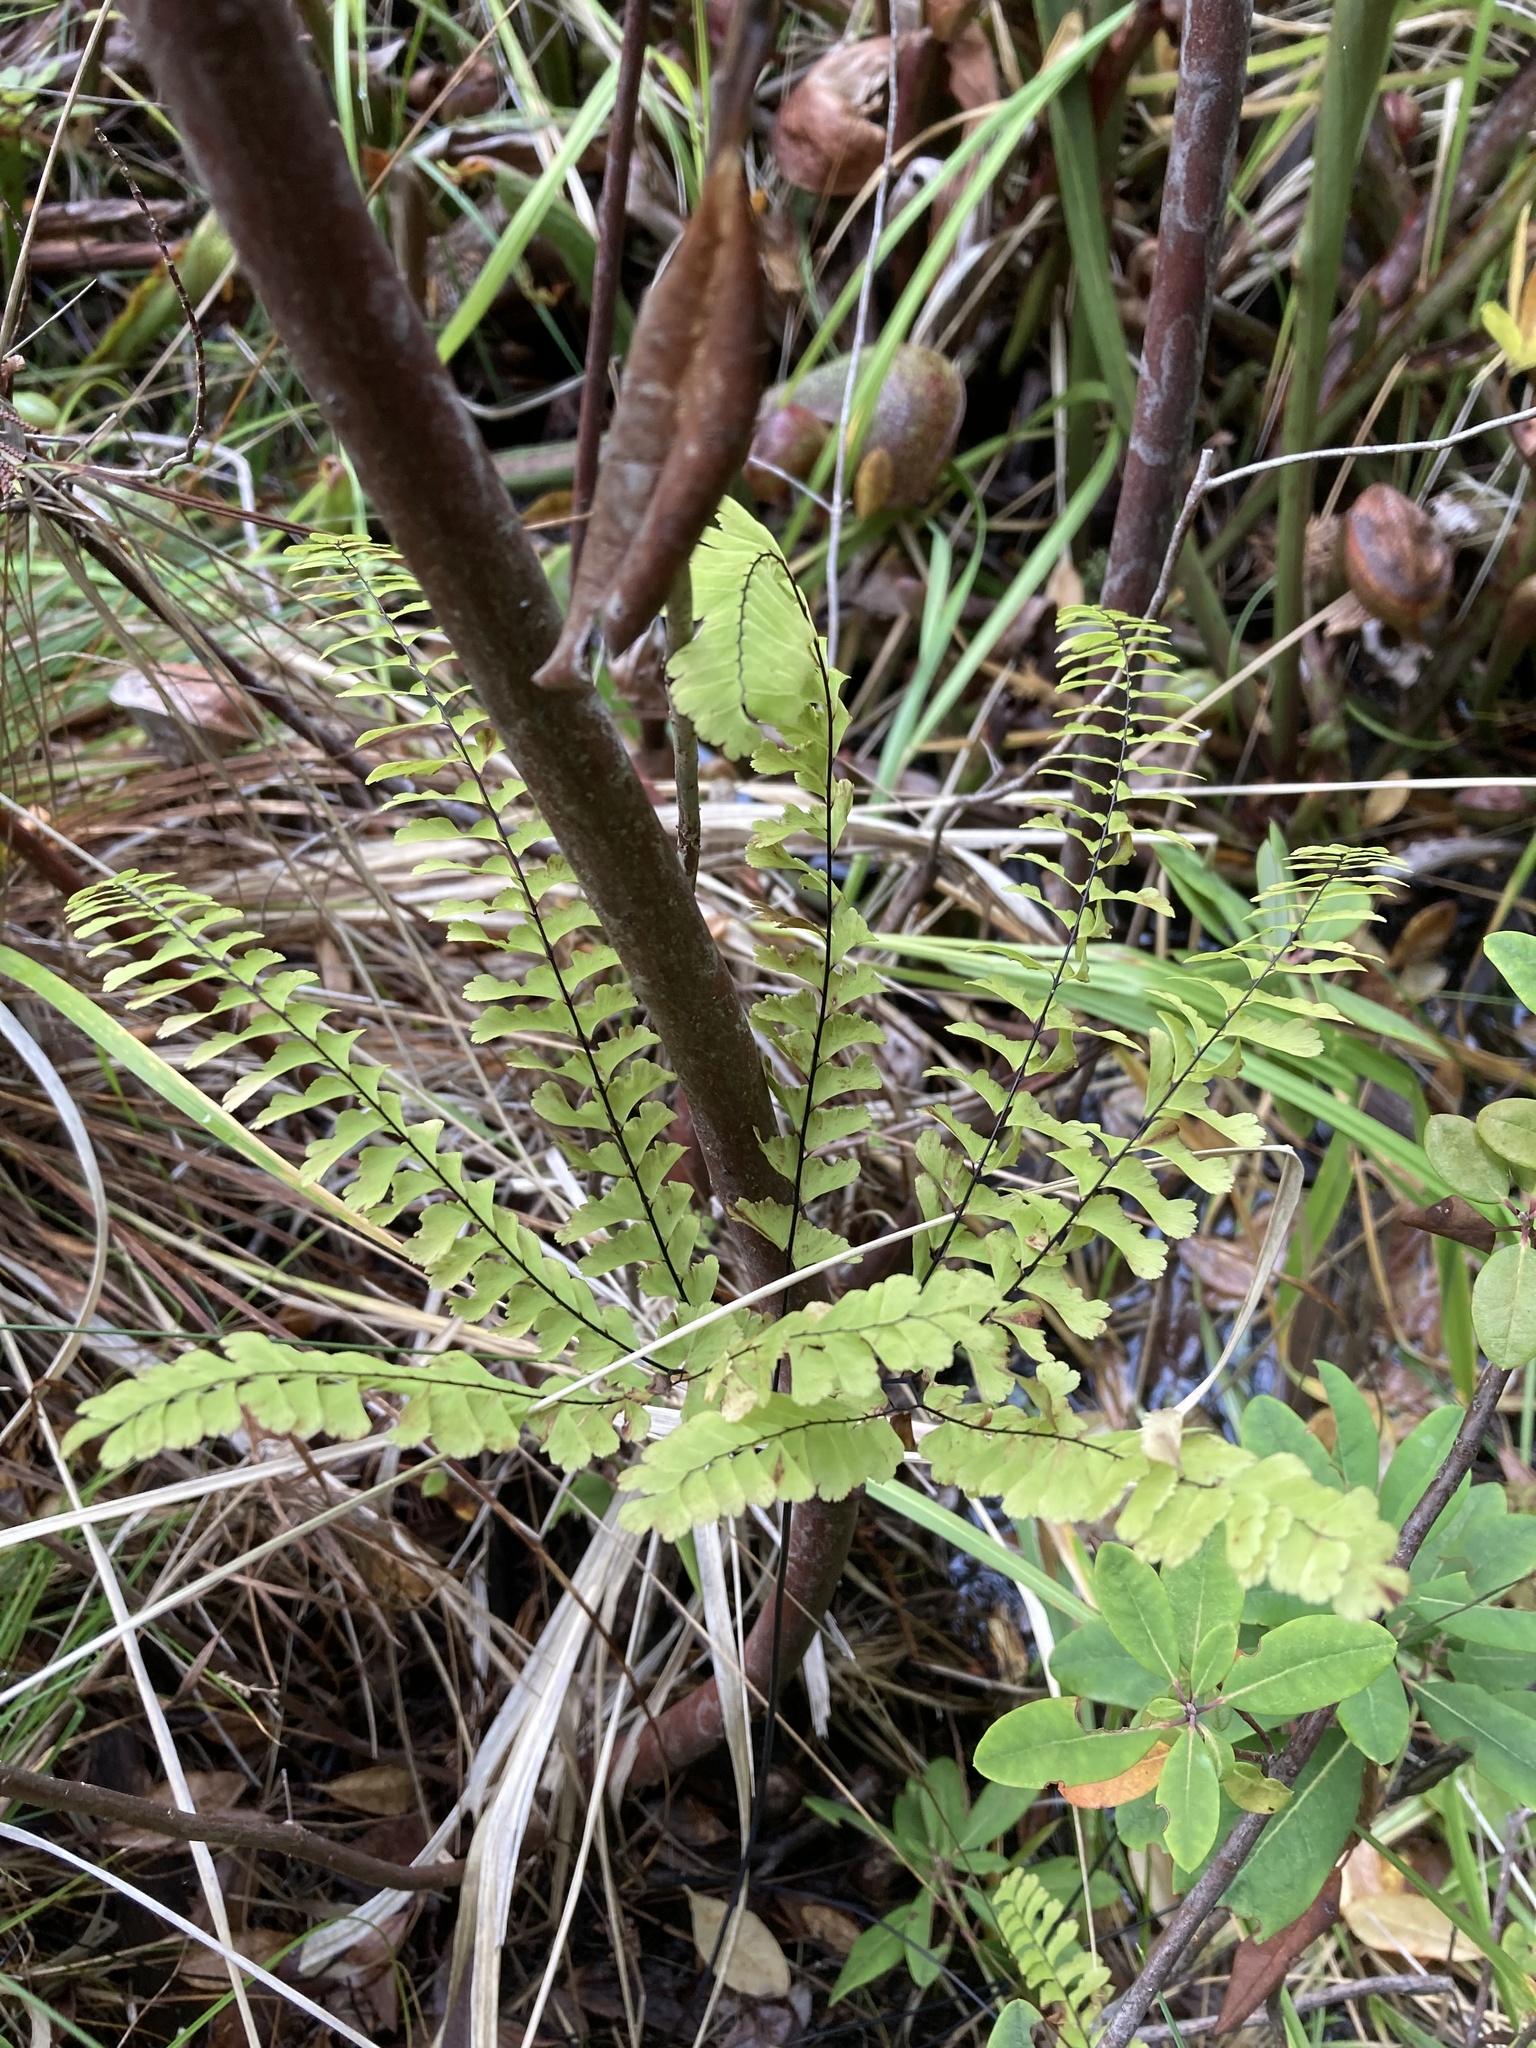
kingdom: Plantae
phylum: Tracheophyta
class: Polypodiopsida
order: Polypodiales
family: Pteridaceae
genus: Adiantum
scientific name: Adiantum aleuticum
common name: Aleutian maidenhair fern
